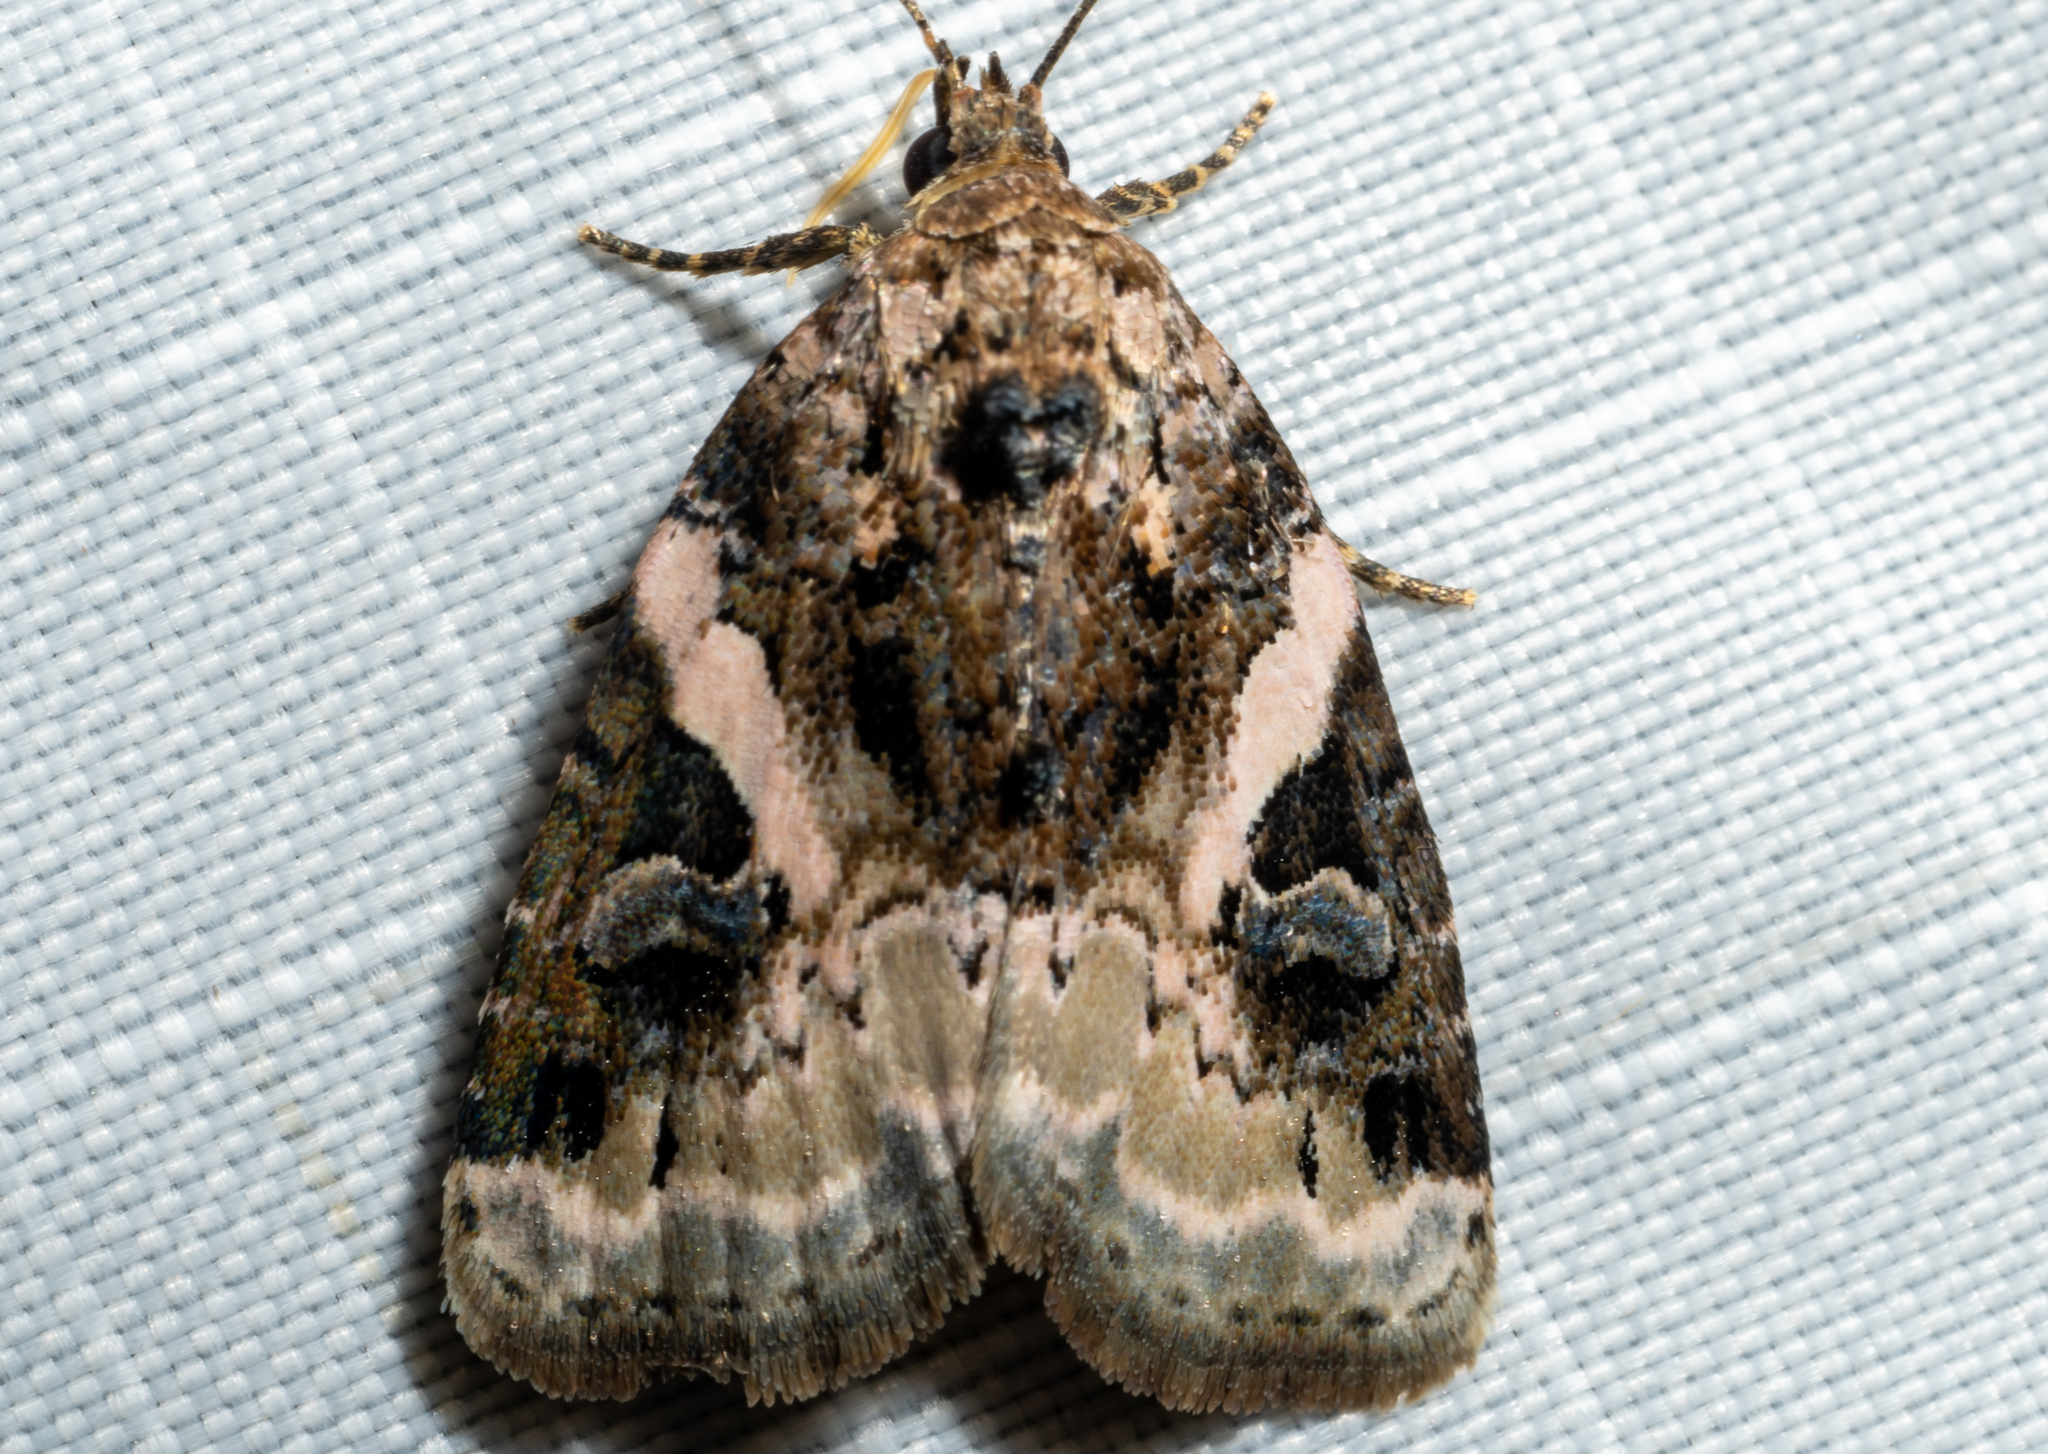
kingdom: Animalia
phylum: Arthropoda
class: Insecta
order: Lepidoptera
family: Noctuidae
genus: Pseudeustrotia
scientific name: Pseudeustrotia carneola
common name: Pink-barred lithacodia moth
